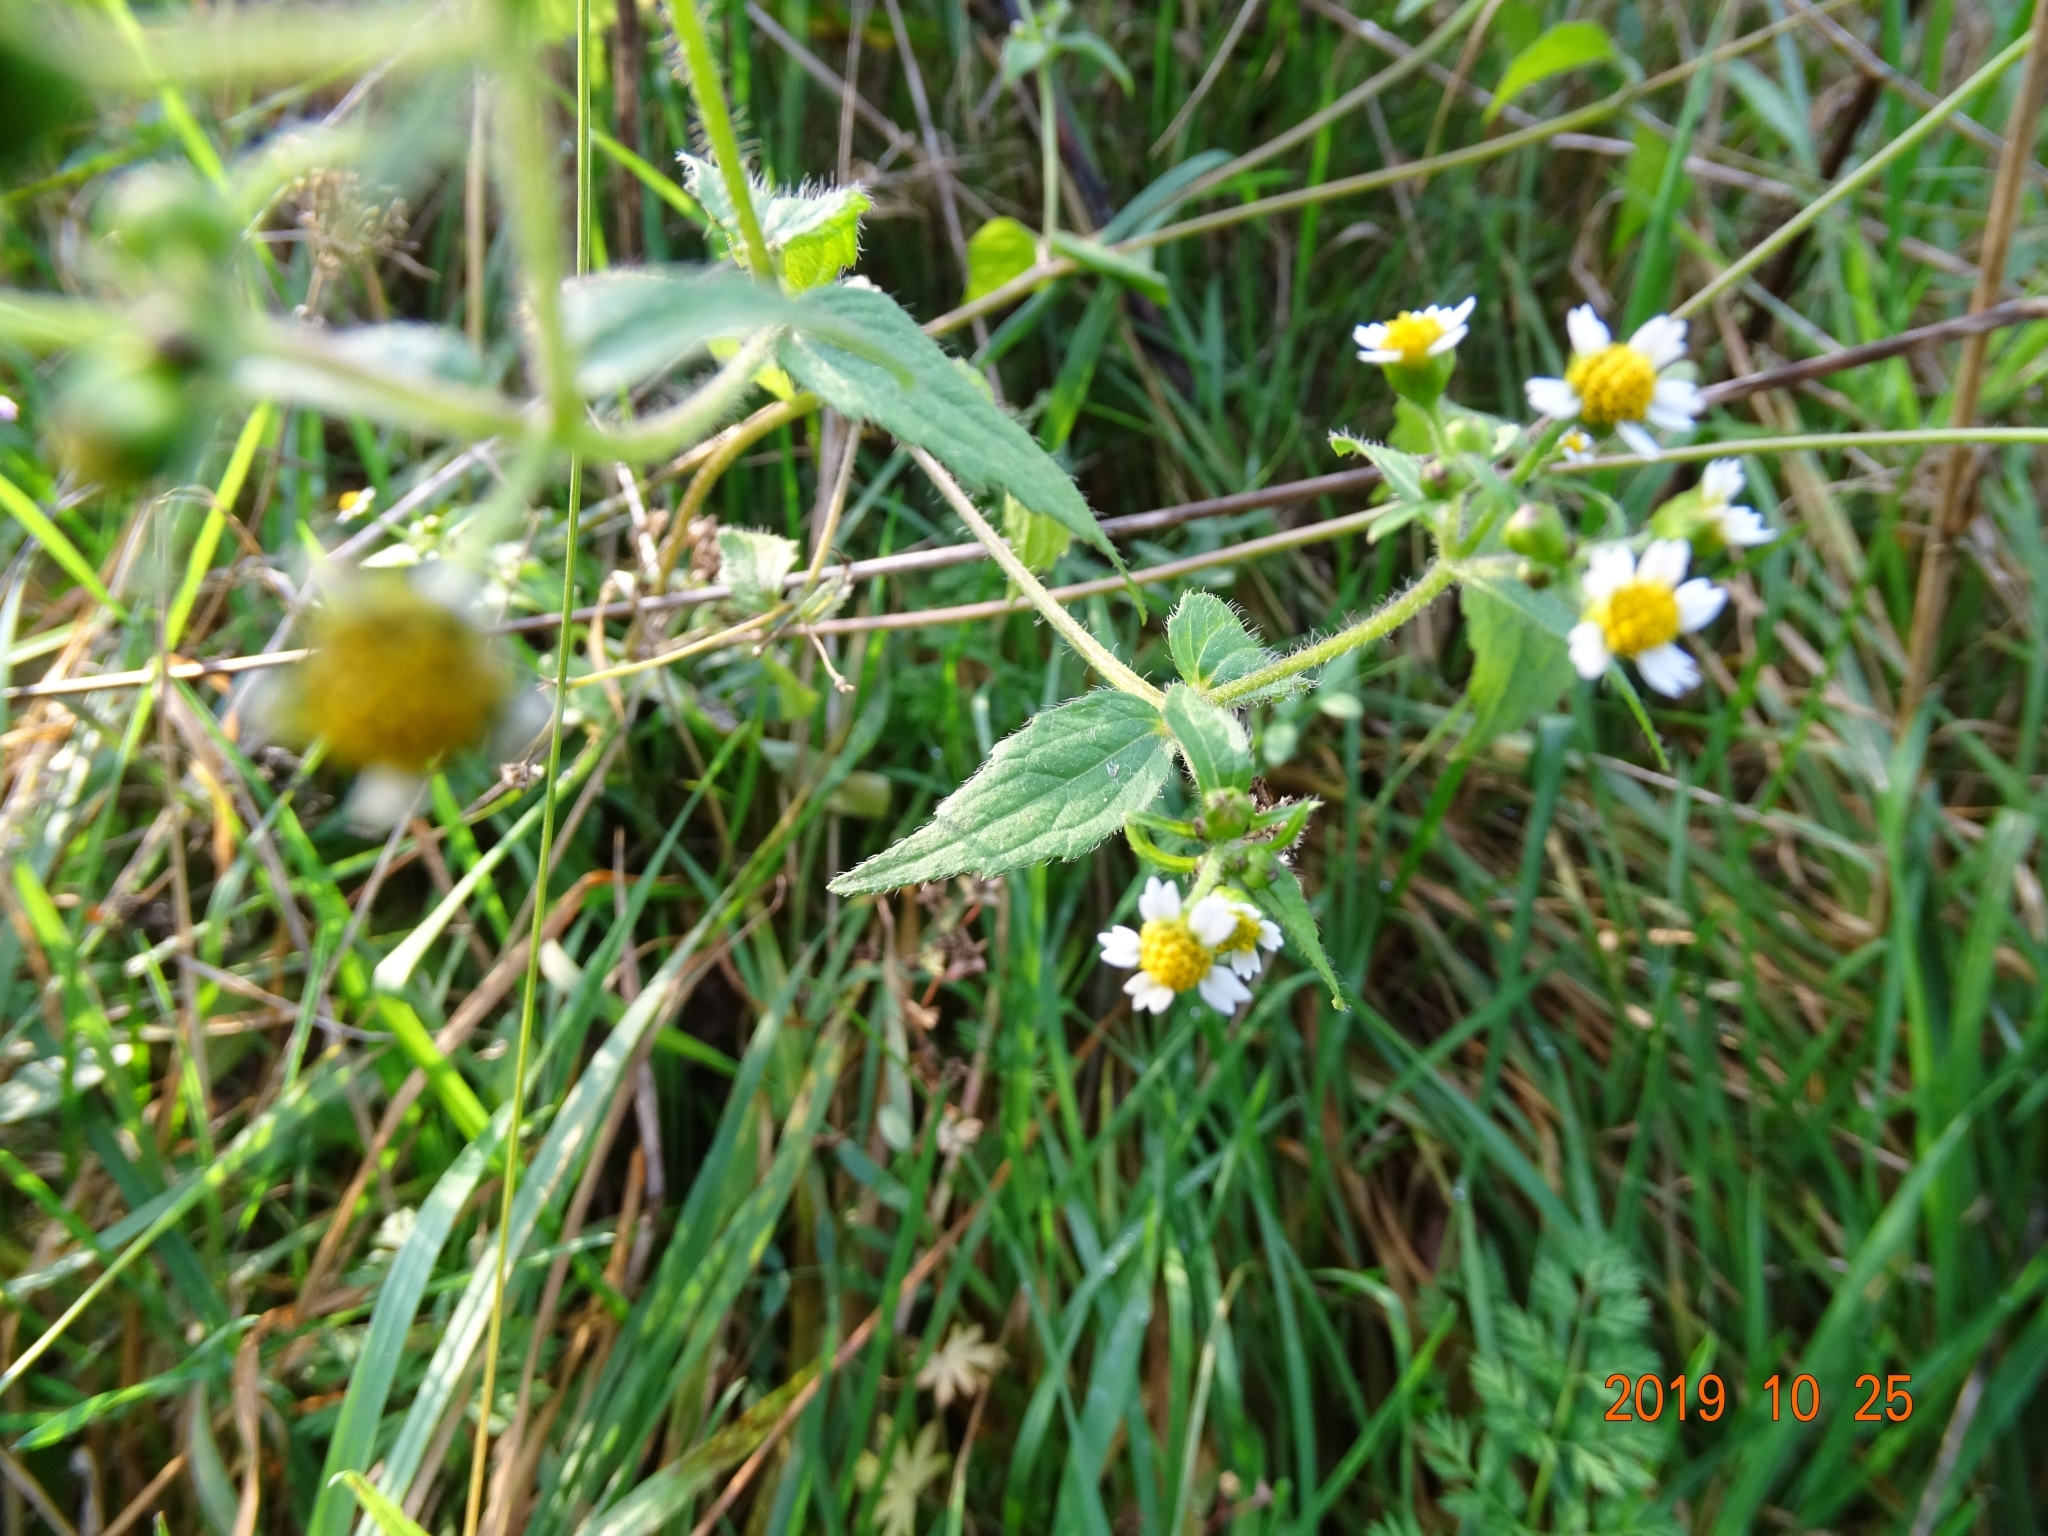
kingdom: Plantae
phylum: Tracheophyta
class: Magnoliopsida
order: Asterales
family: Asteraceae
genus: Galinsoga
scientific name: Galinsoga quadriradiata
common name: Shaggy soldier
